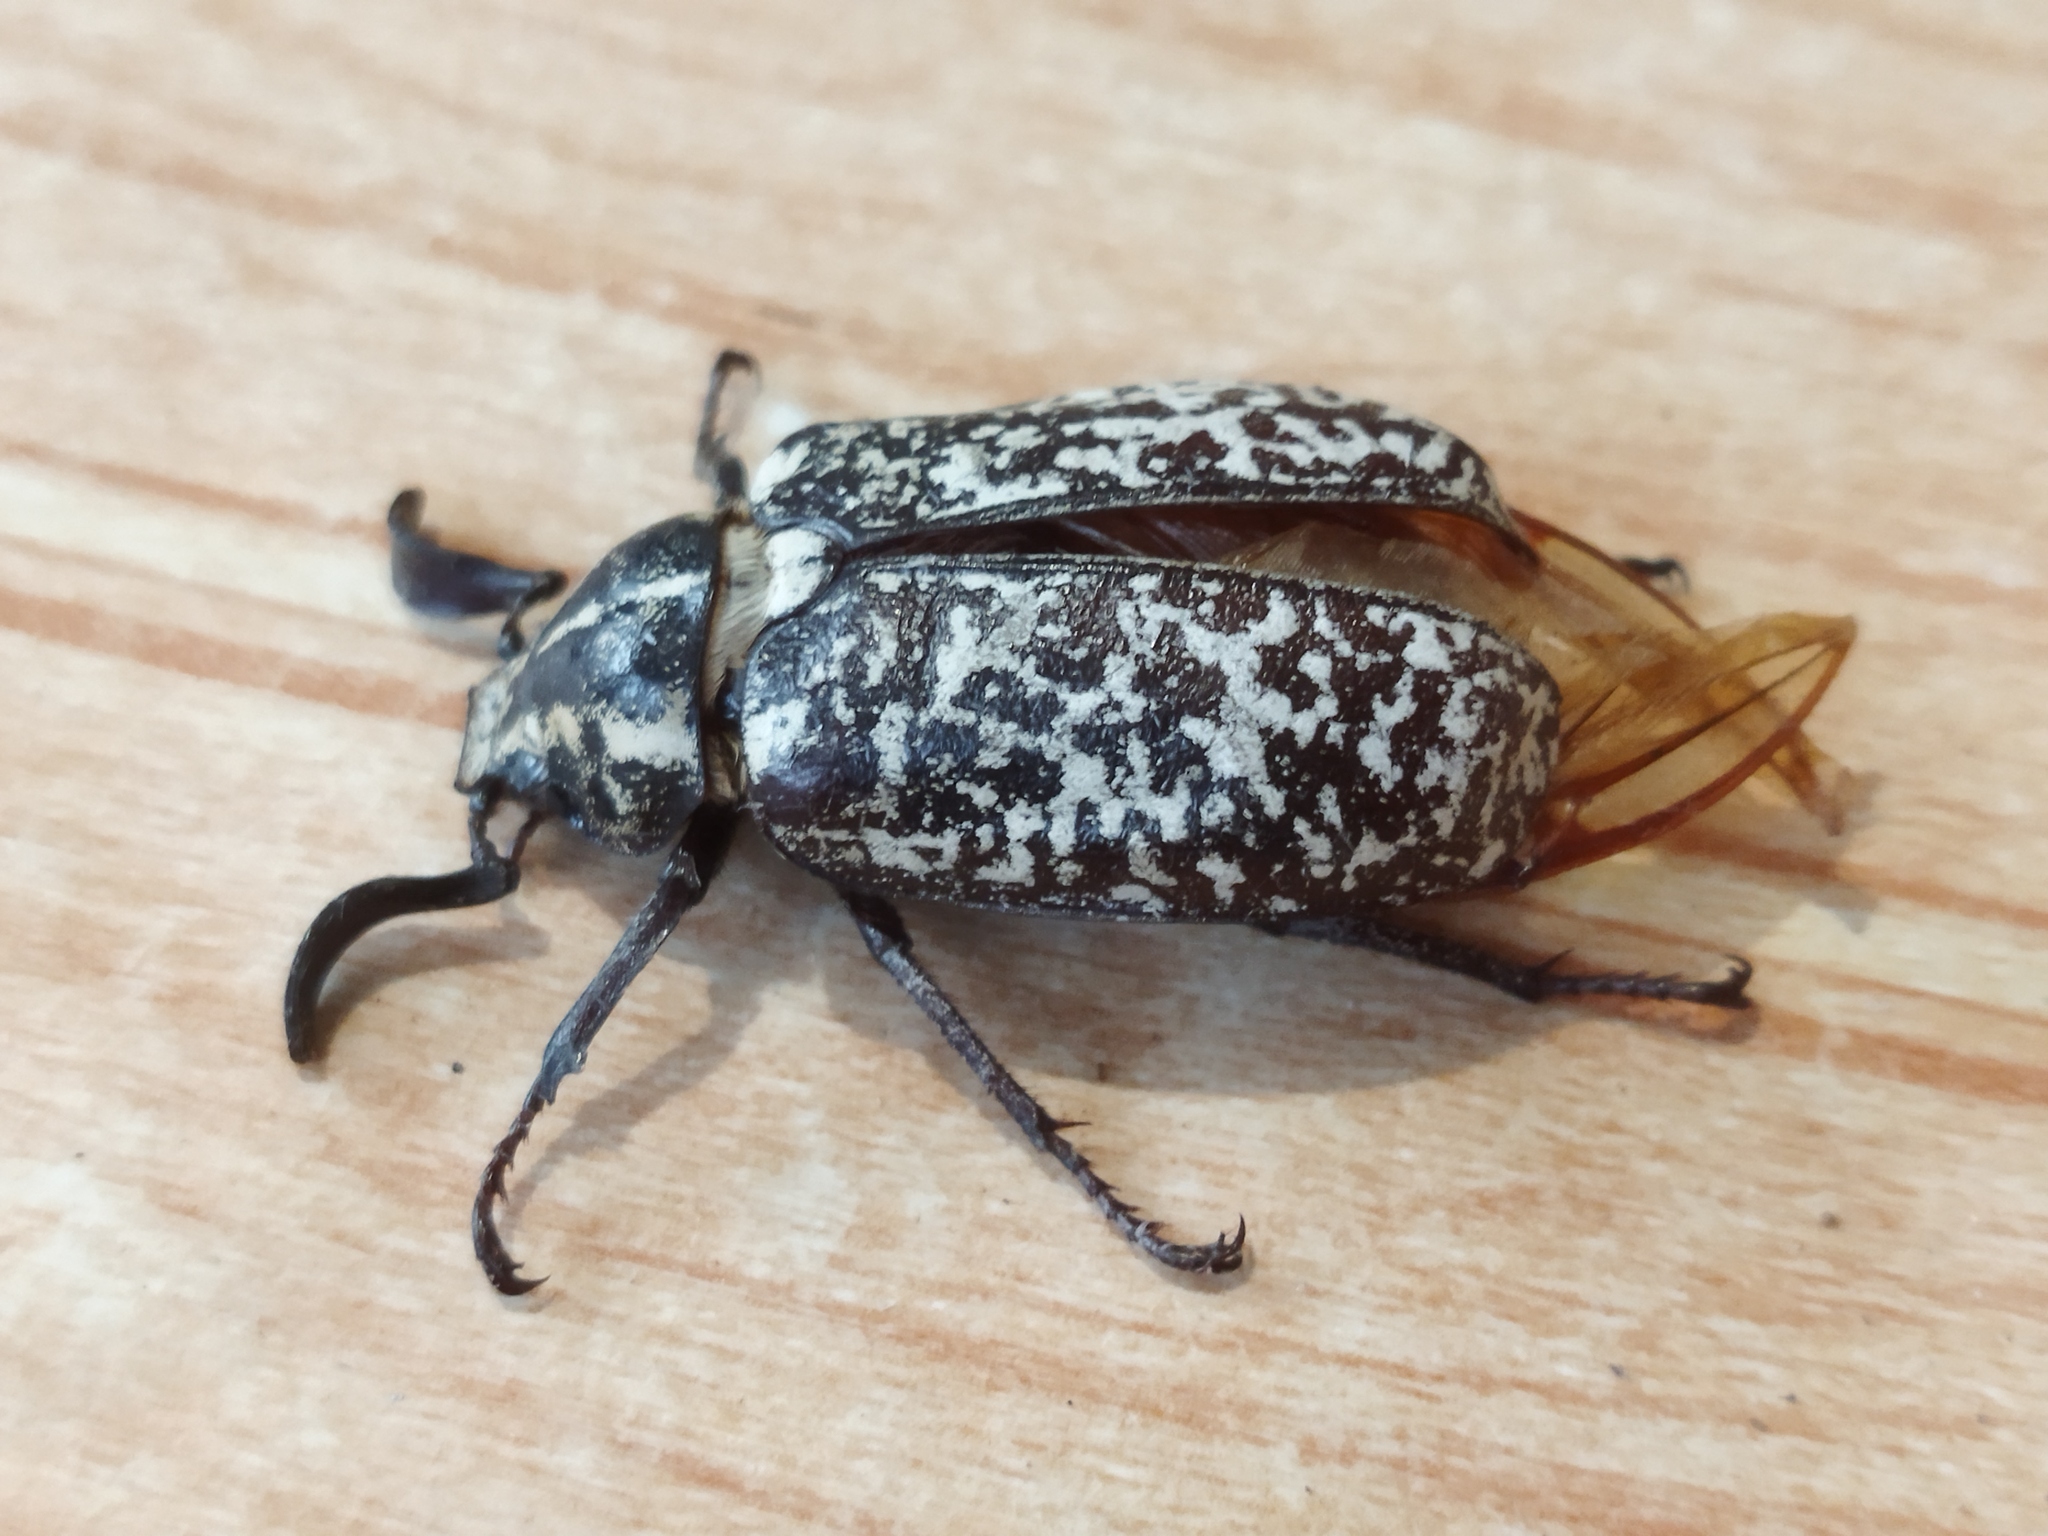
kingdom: Animalia
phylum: Arthropoda
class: Insecta
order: Coleoptera
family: Scarabaeidae
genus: Polyphylla
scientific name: Polyphylla fullo
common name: Pine chafer
